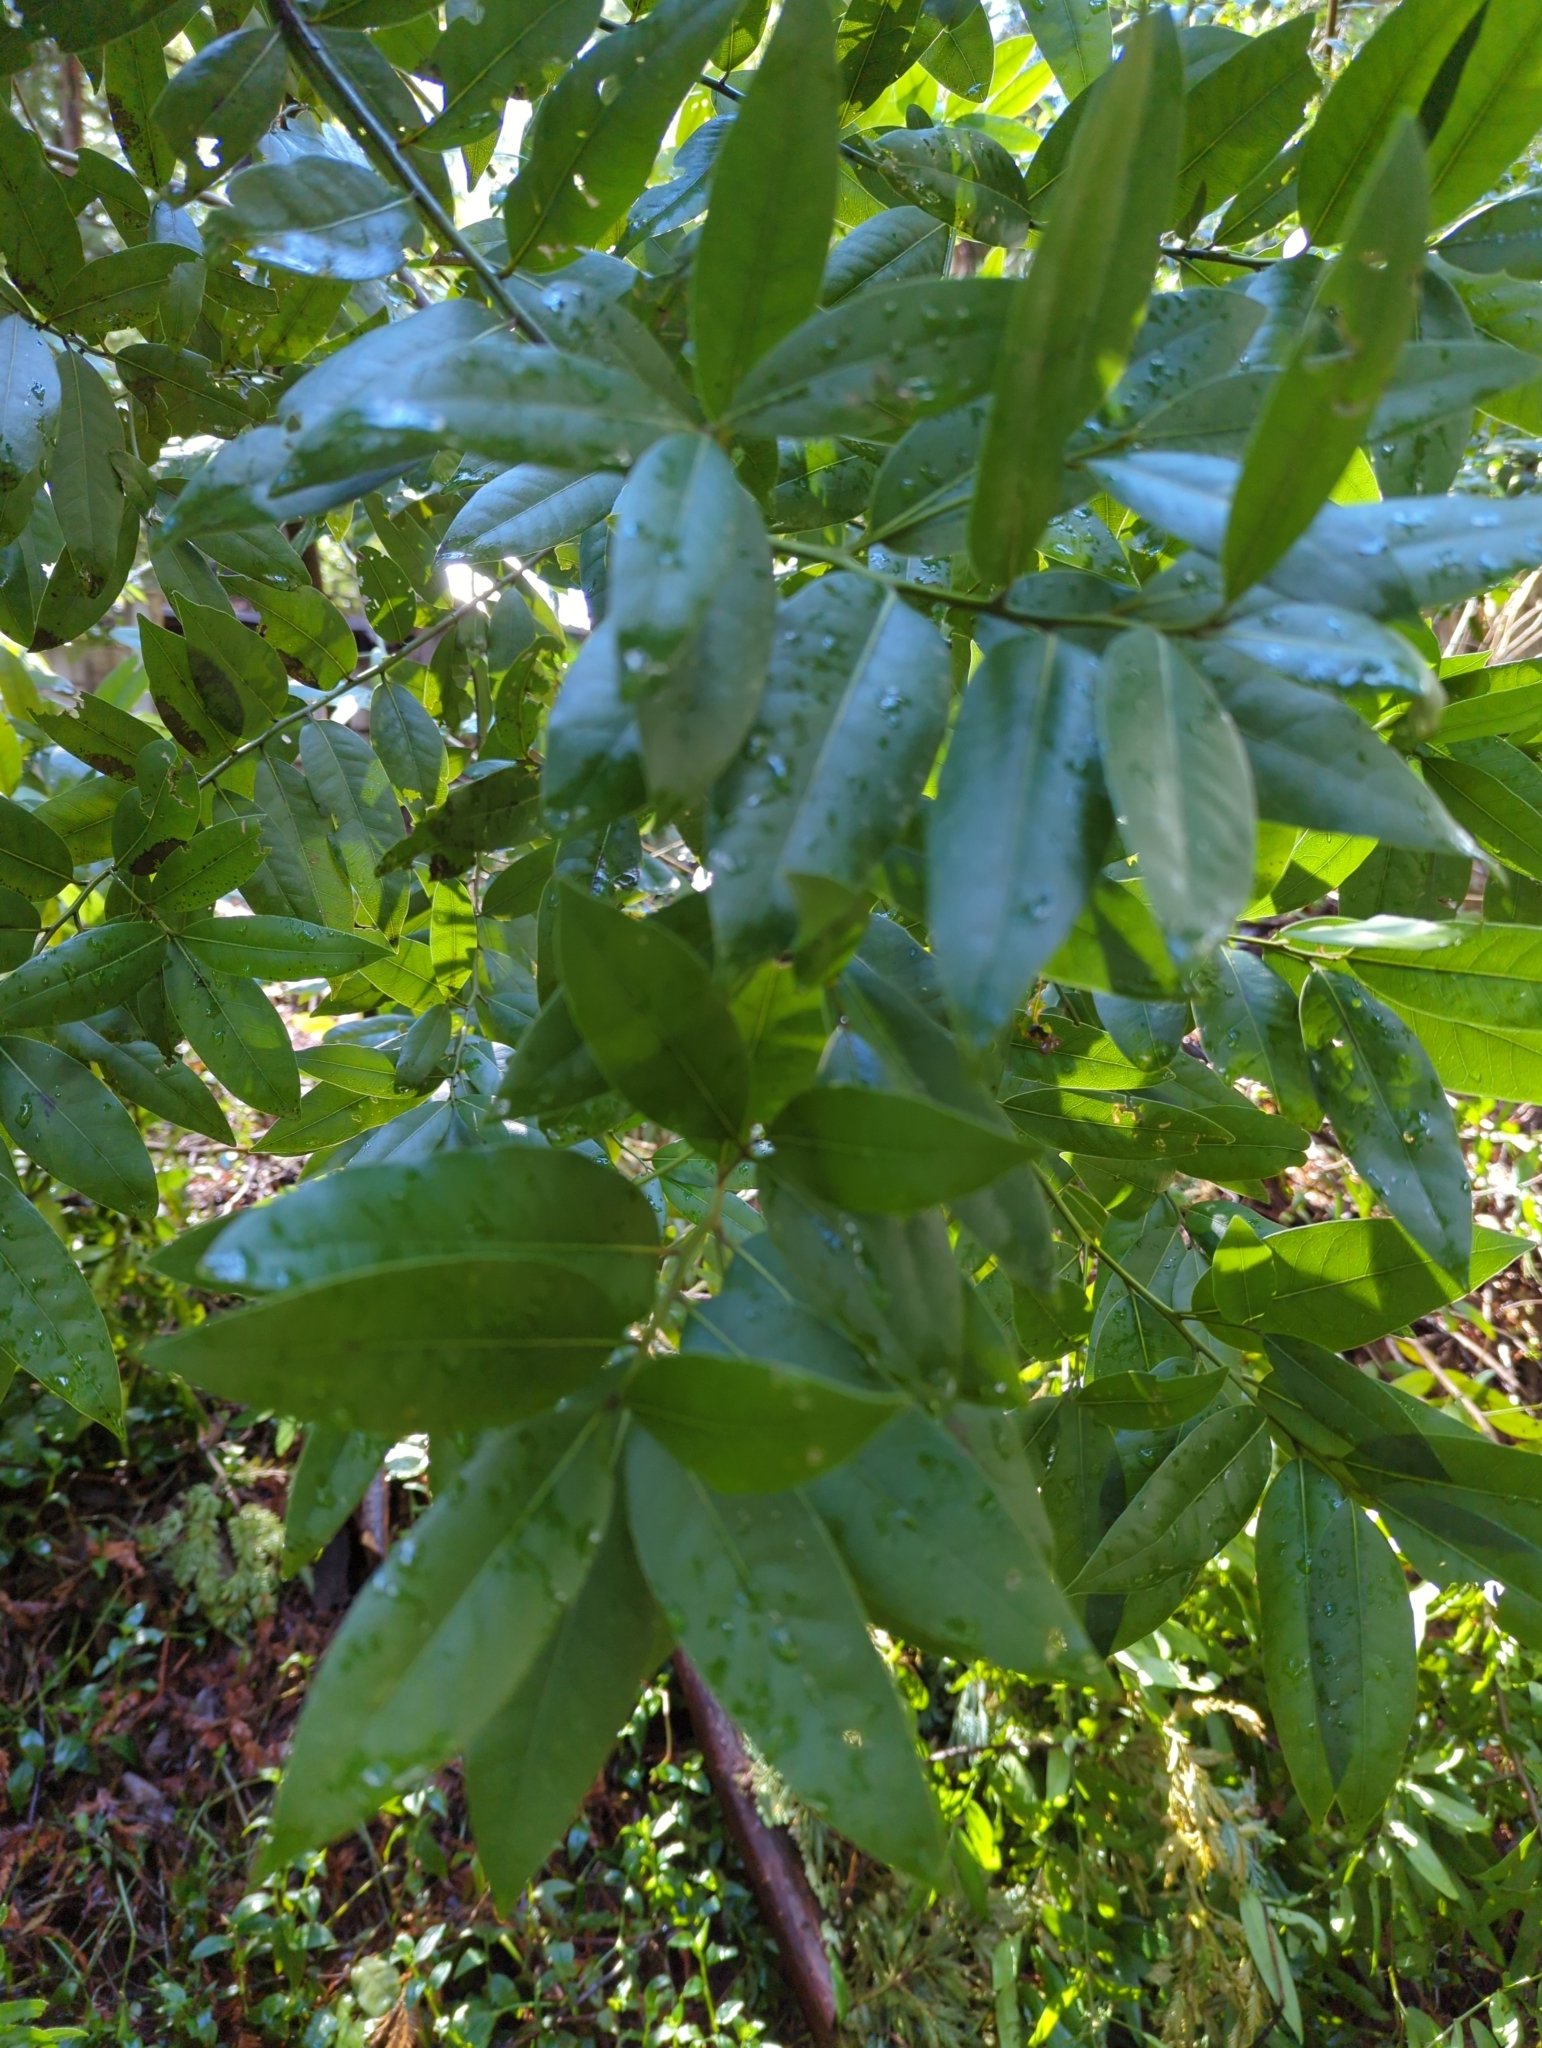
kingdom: Plantae
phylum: Tracheophyta
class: Magnoliopsida
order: Laurales
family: Lauraceae
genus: Umbellularia
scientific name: Umbellularia californica
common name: California bay
